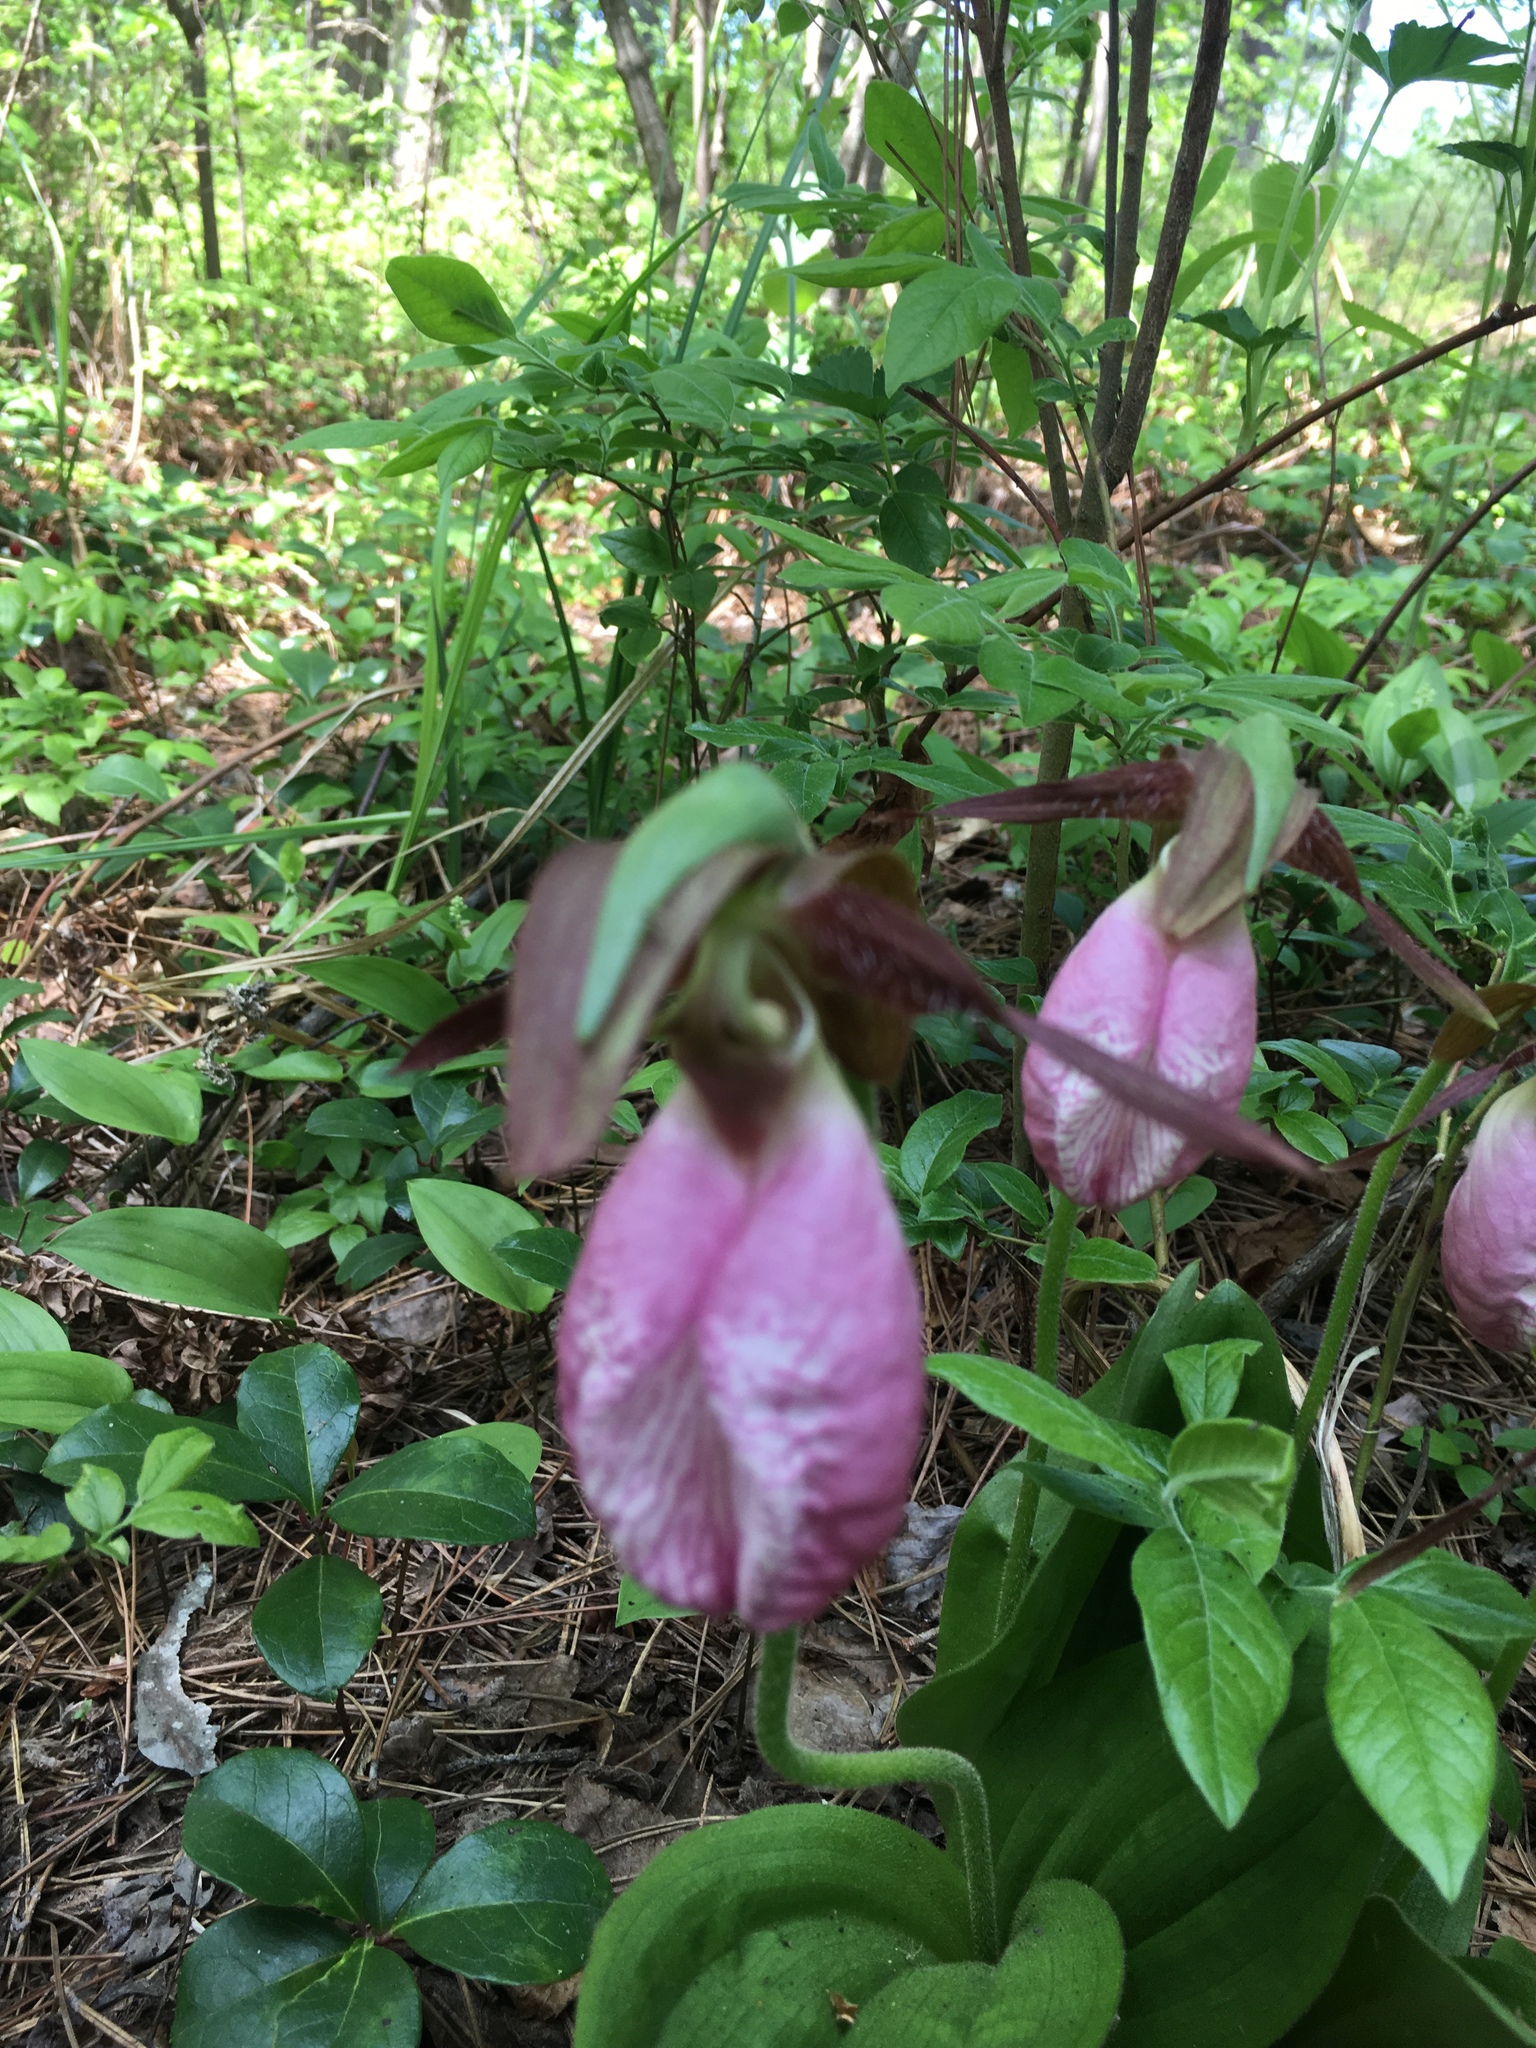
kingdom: Plantae
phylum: Tracheophyta
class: Liliopsida
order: Asparagales
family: Orchidaceae
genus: Cypripedium
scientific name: Cypripedium acaule
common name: Pink lady's-slipper
